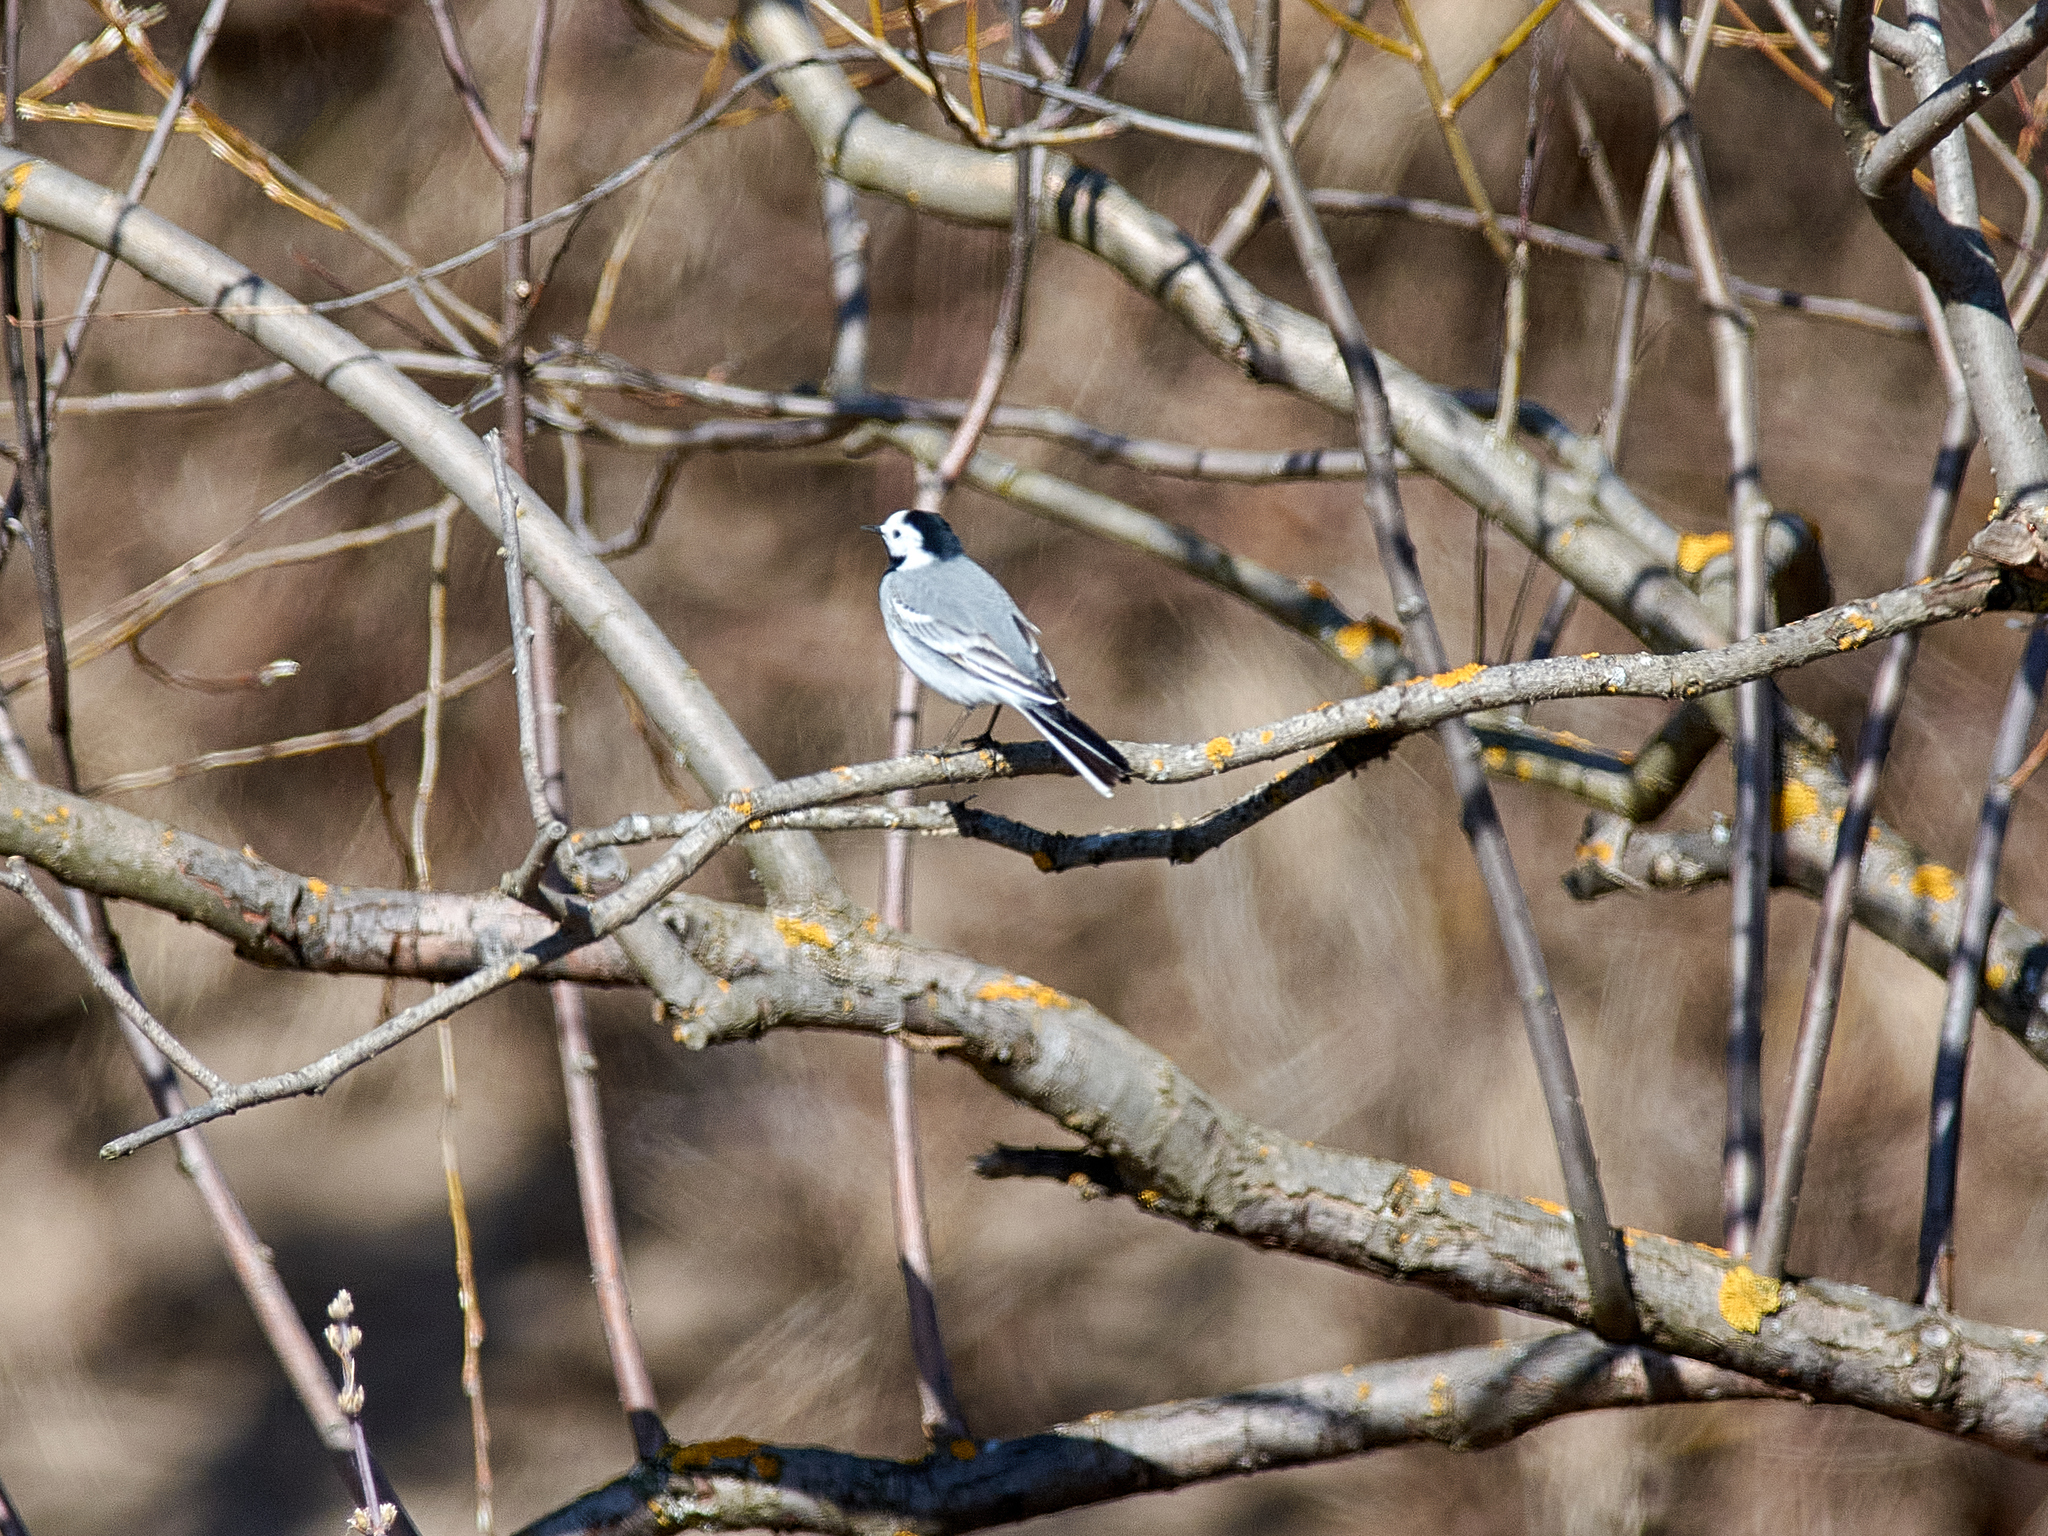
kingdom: Animalia
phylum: Chordata
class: Aves
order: Passeriformes
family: Motacillidae
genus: Motacilla
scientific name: Motacilla alba
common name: White wagtail
